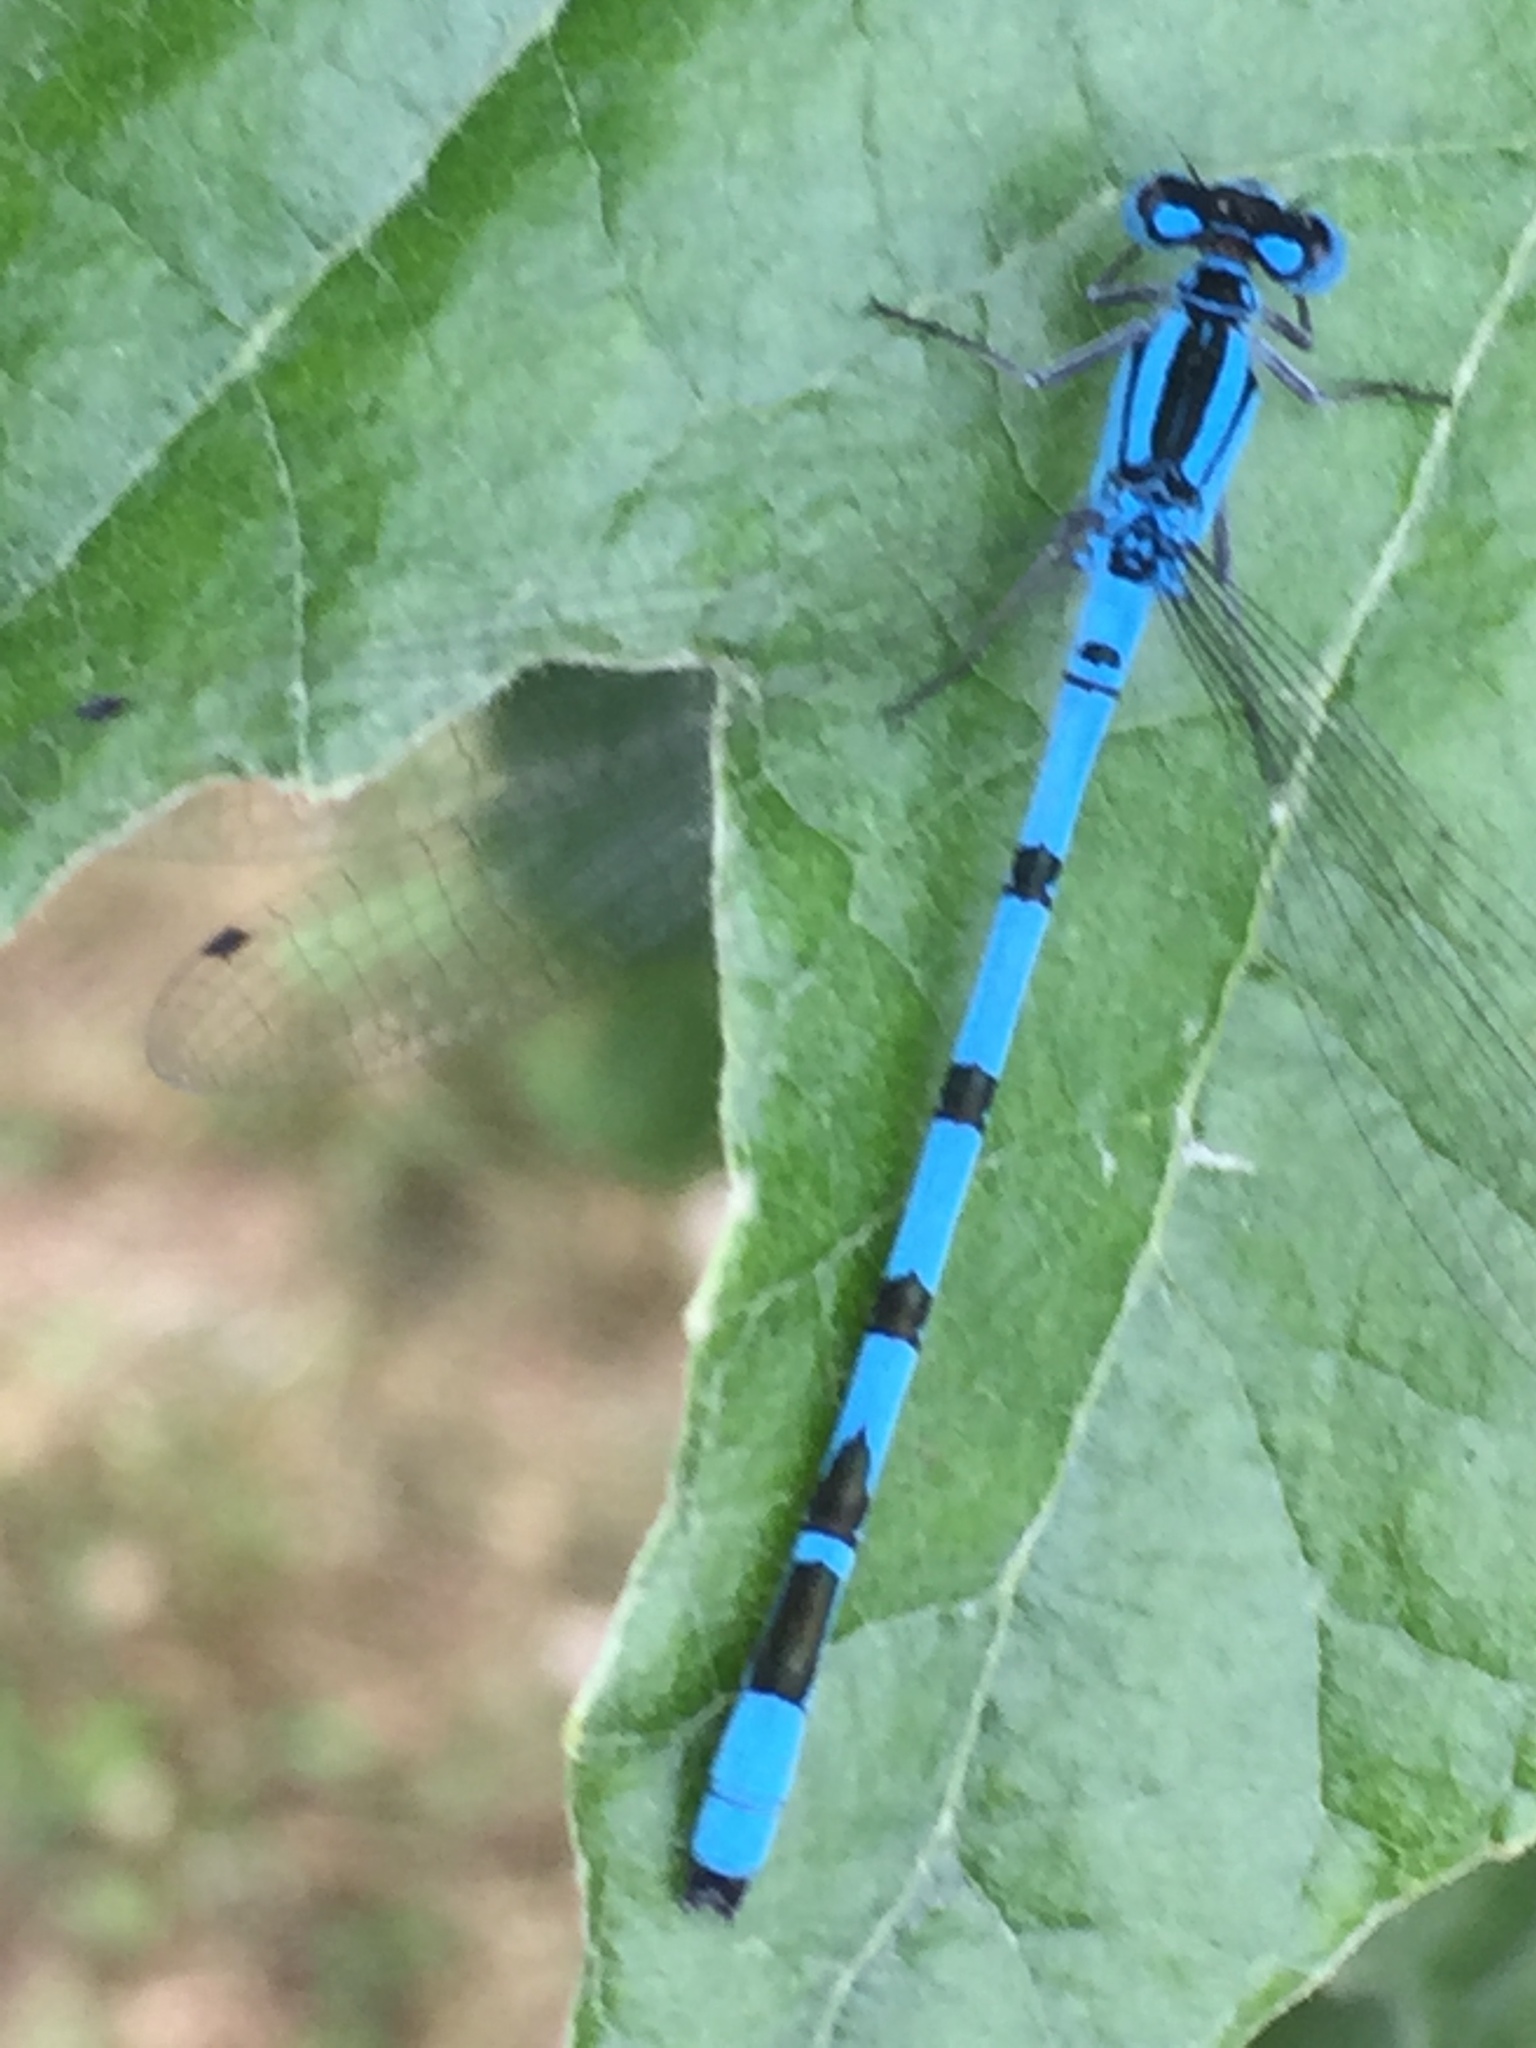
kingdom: Animalia
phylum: Arthropoda
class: Insecta
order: Odonata
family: Coenagrionidae
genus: Enallagma
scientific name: Enallagma cyathigerum
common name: Common blue damselfly
